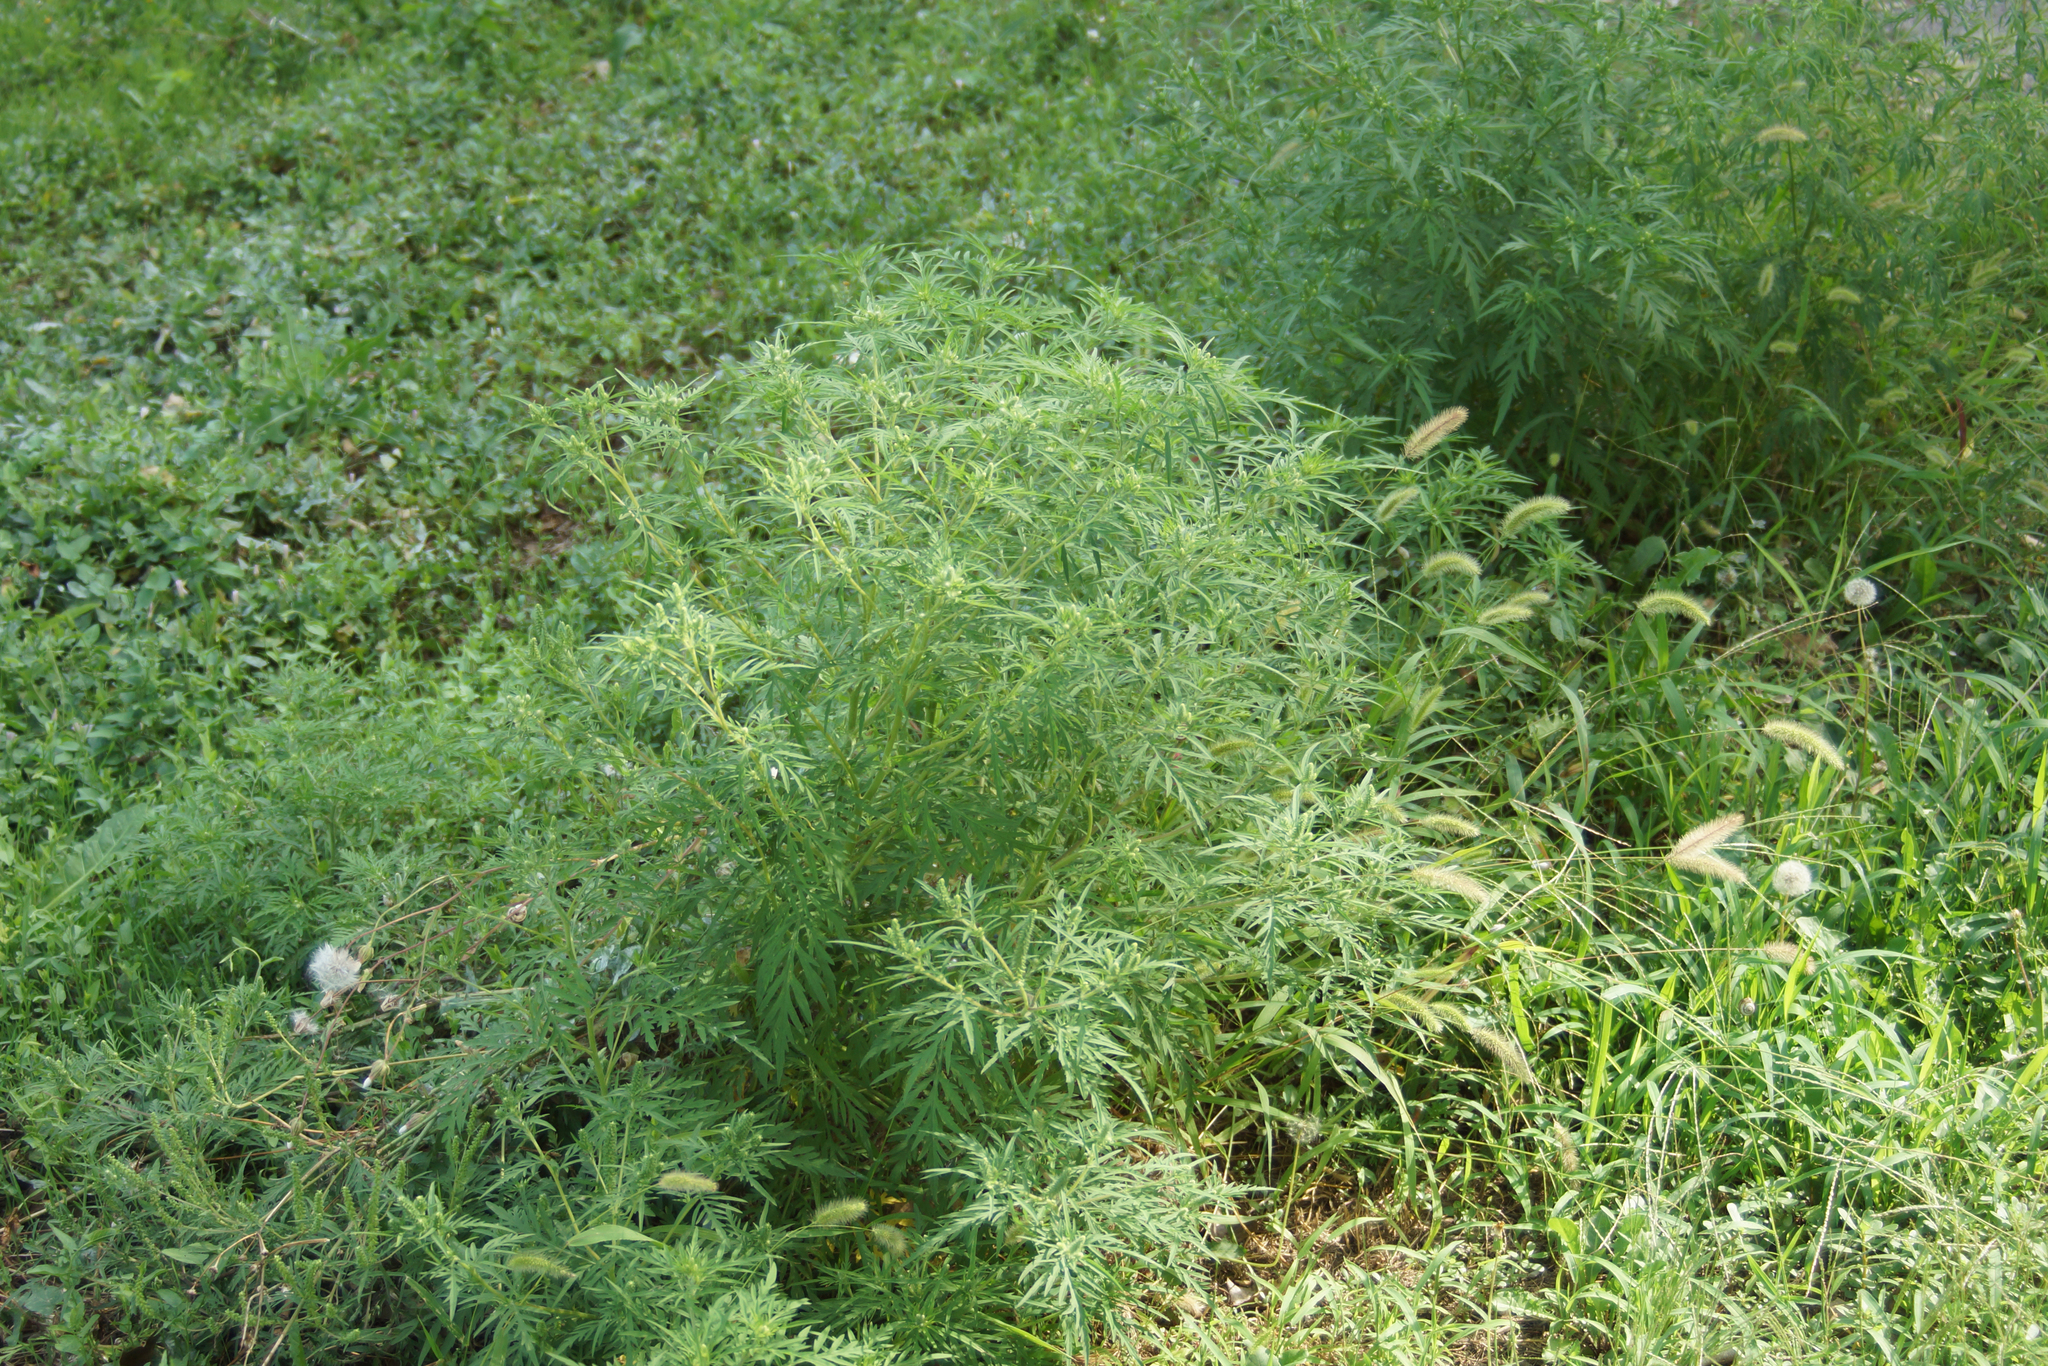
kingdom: Plantae
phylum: Tracheophyta
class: Magnoliopsida
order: Asterales
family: Asteraceae
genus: Ambrosia
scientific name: Ambrosia artemisiifolia
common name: Annual ragweed
